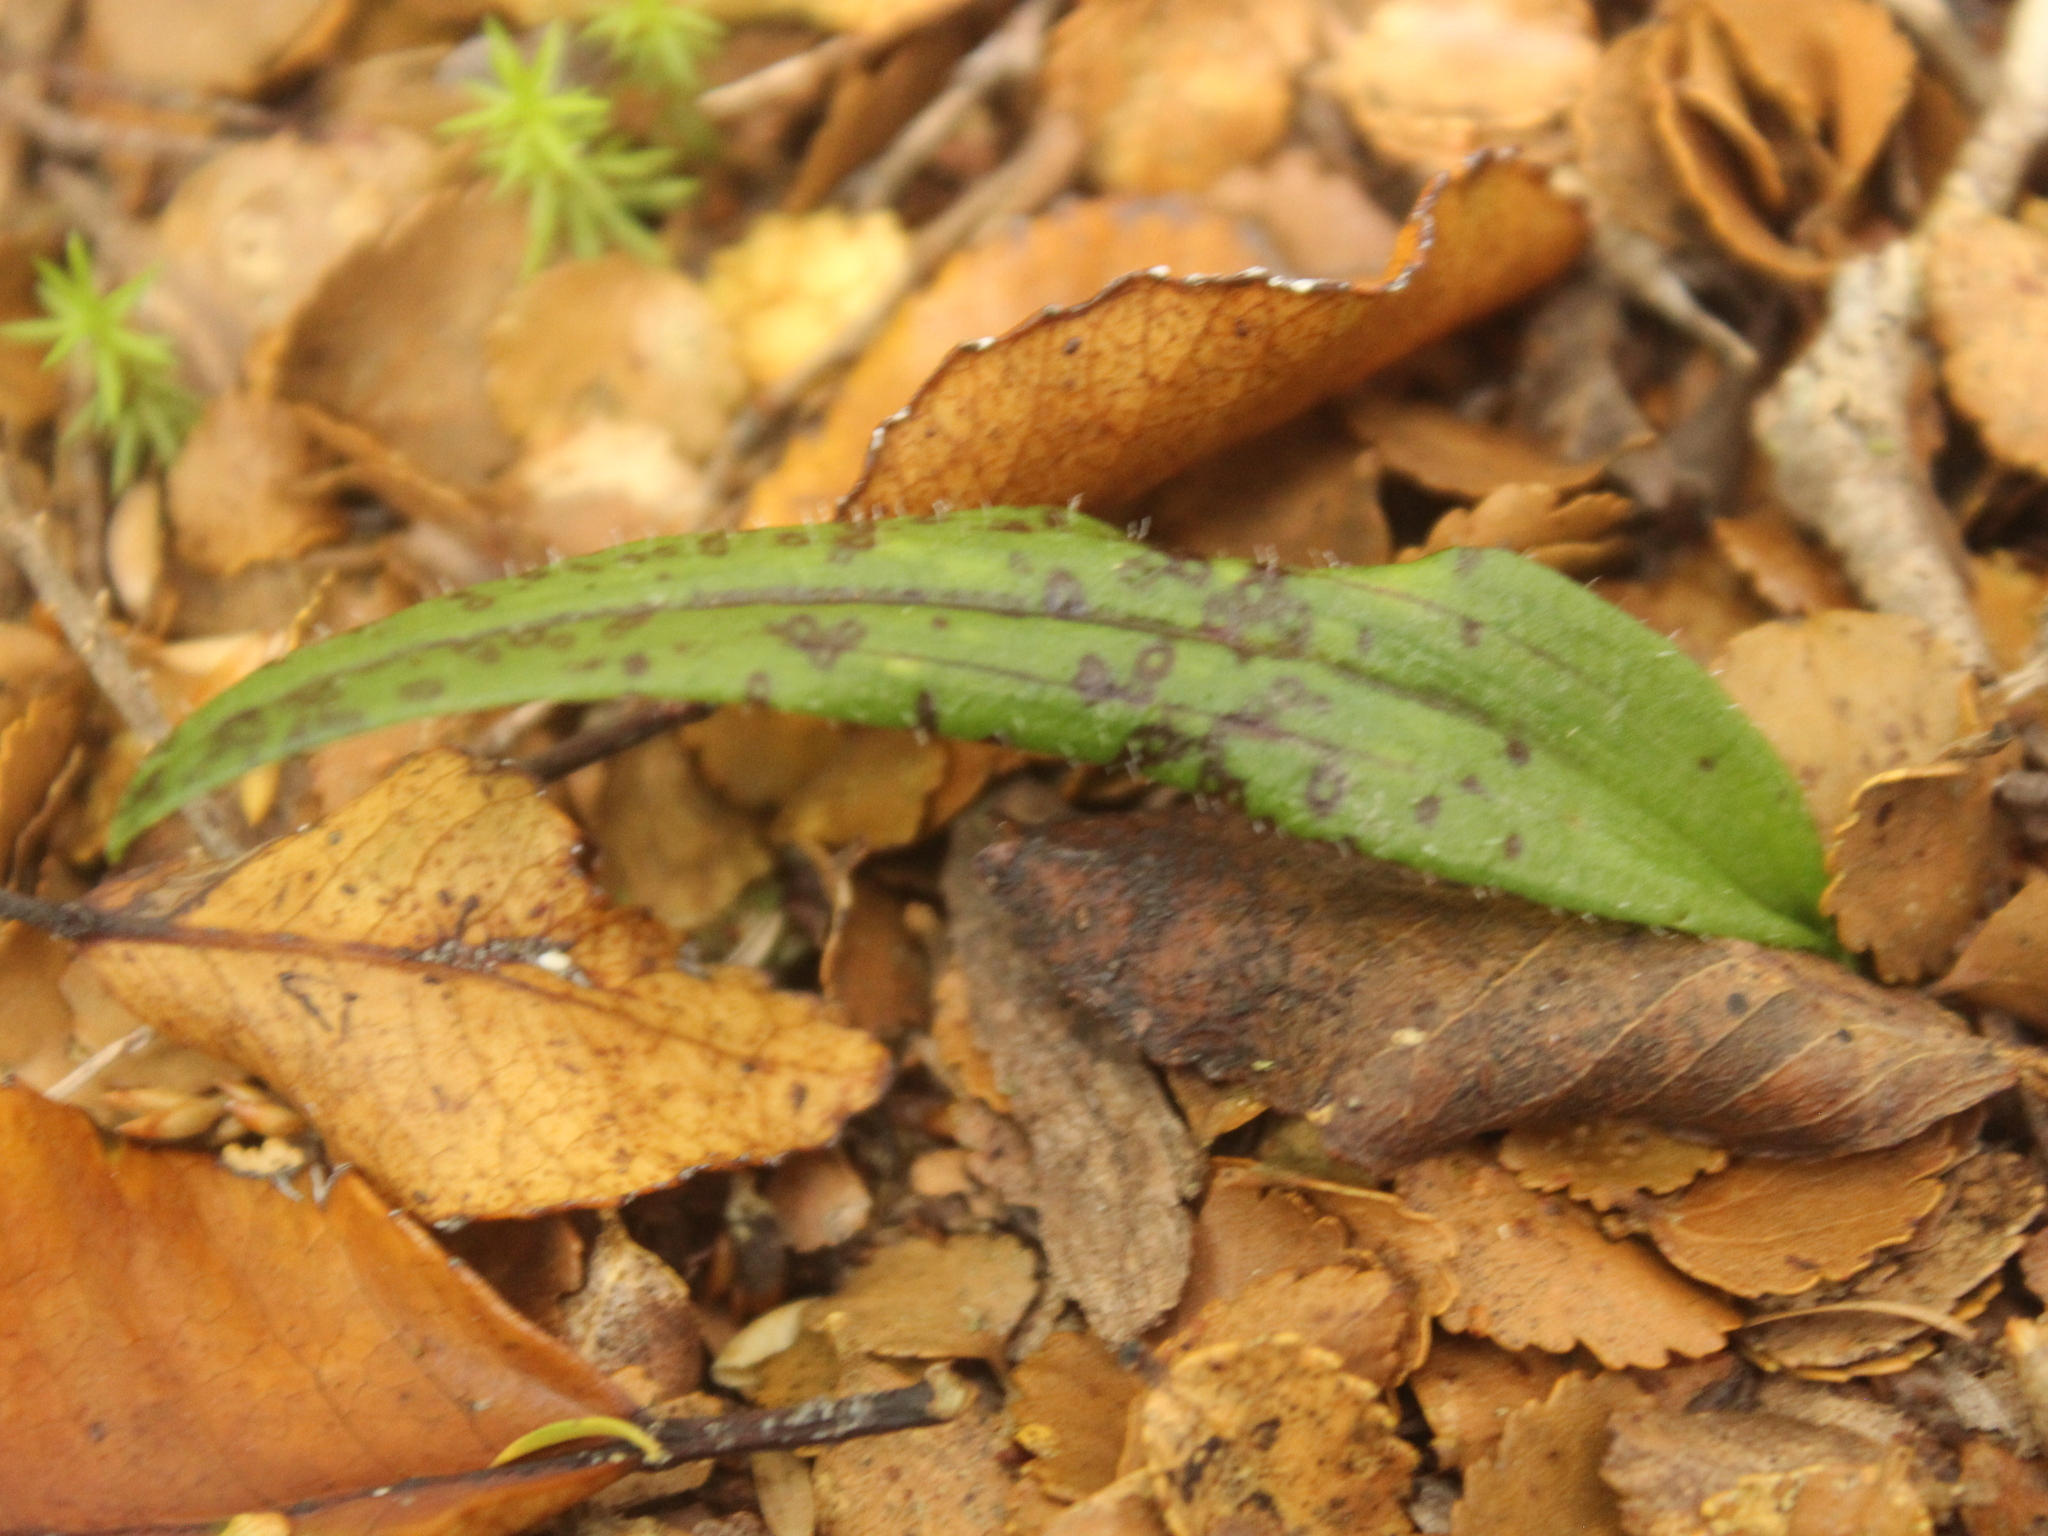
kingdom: Plantae
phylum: Tracheophyta
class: Liliopsida
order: Asparagales
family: Orchidaceae
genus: Aporostylis
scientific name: Aporostylis bifolia
